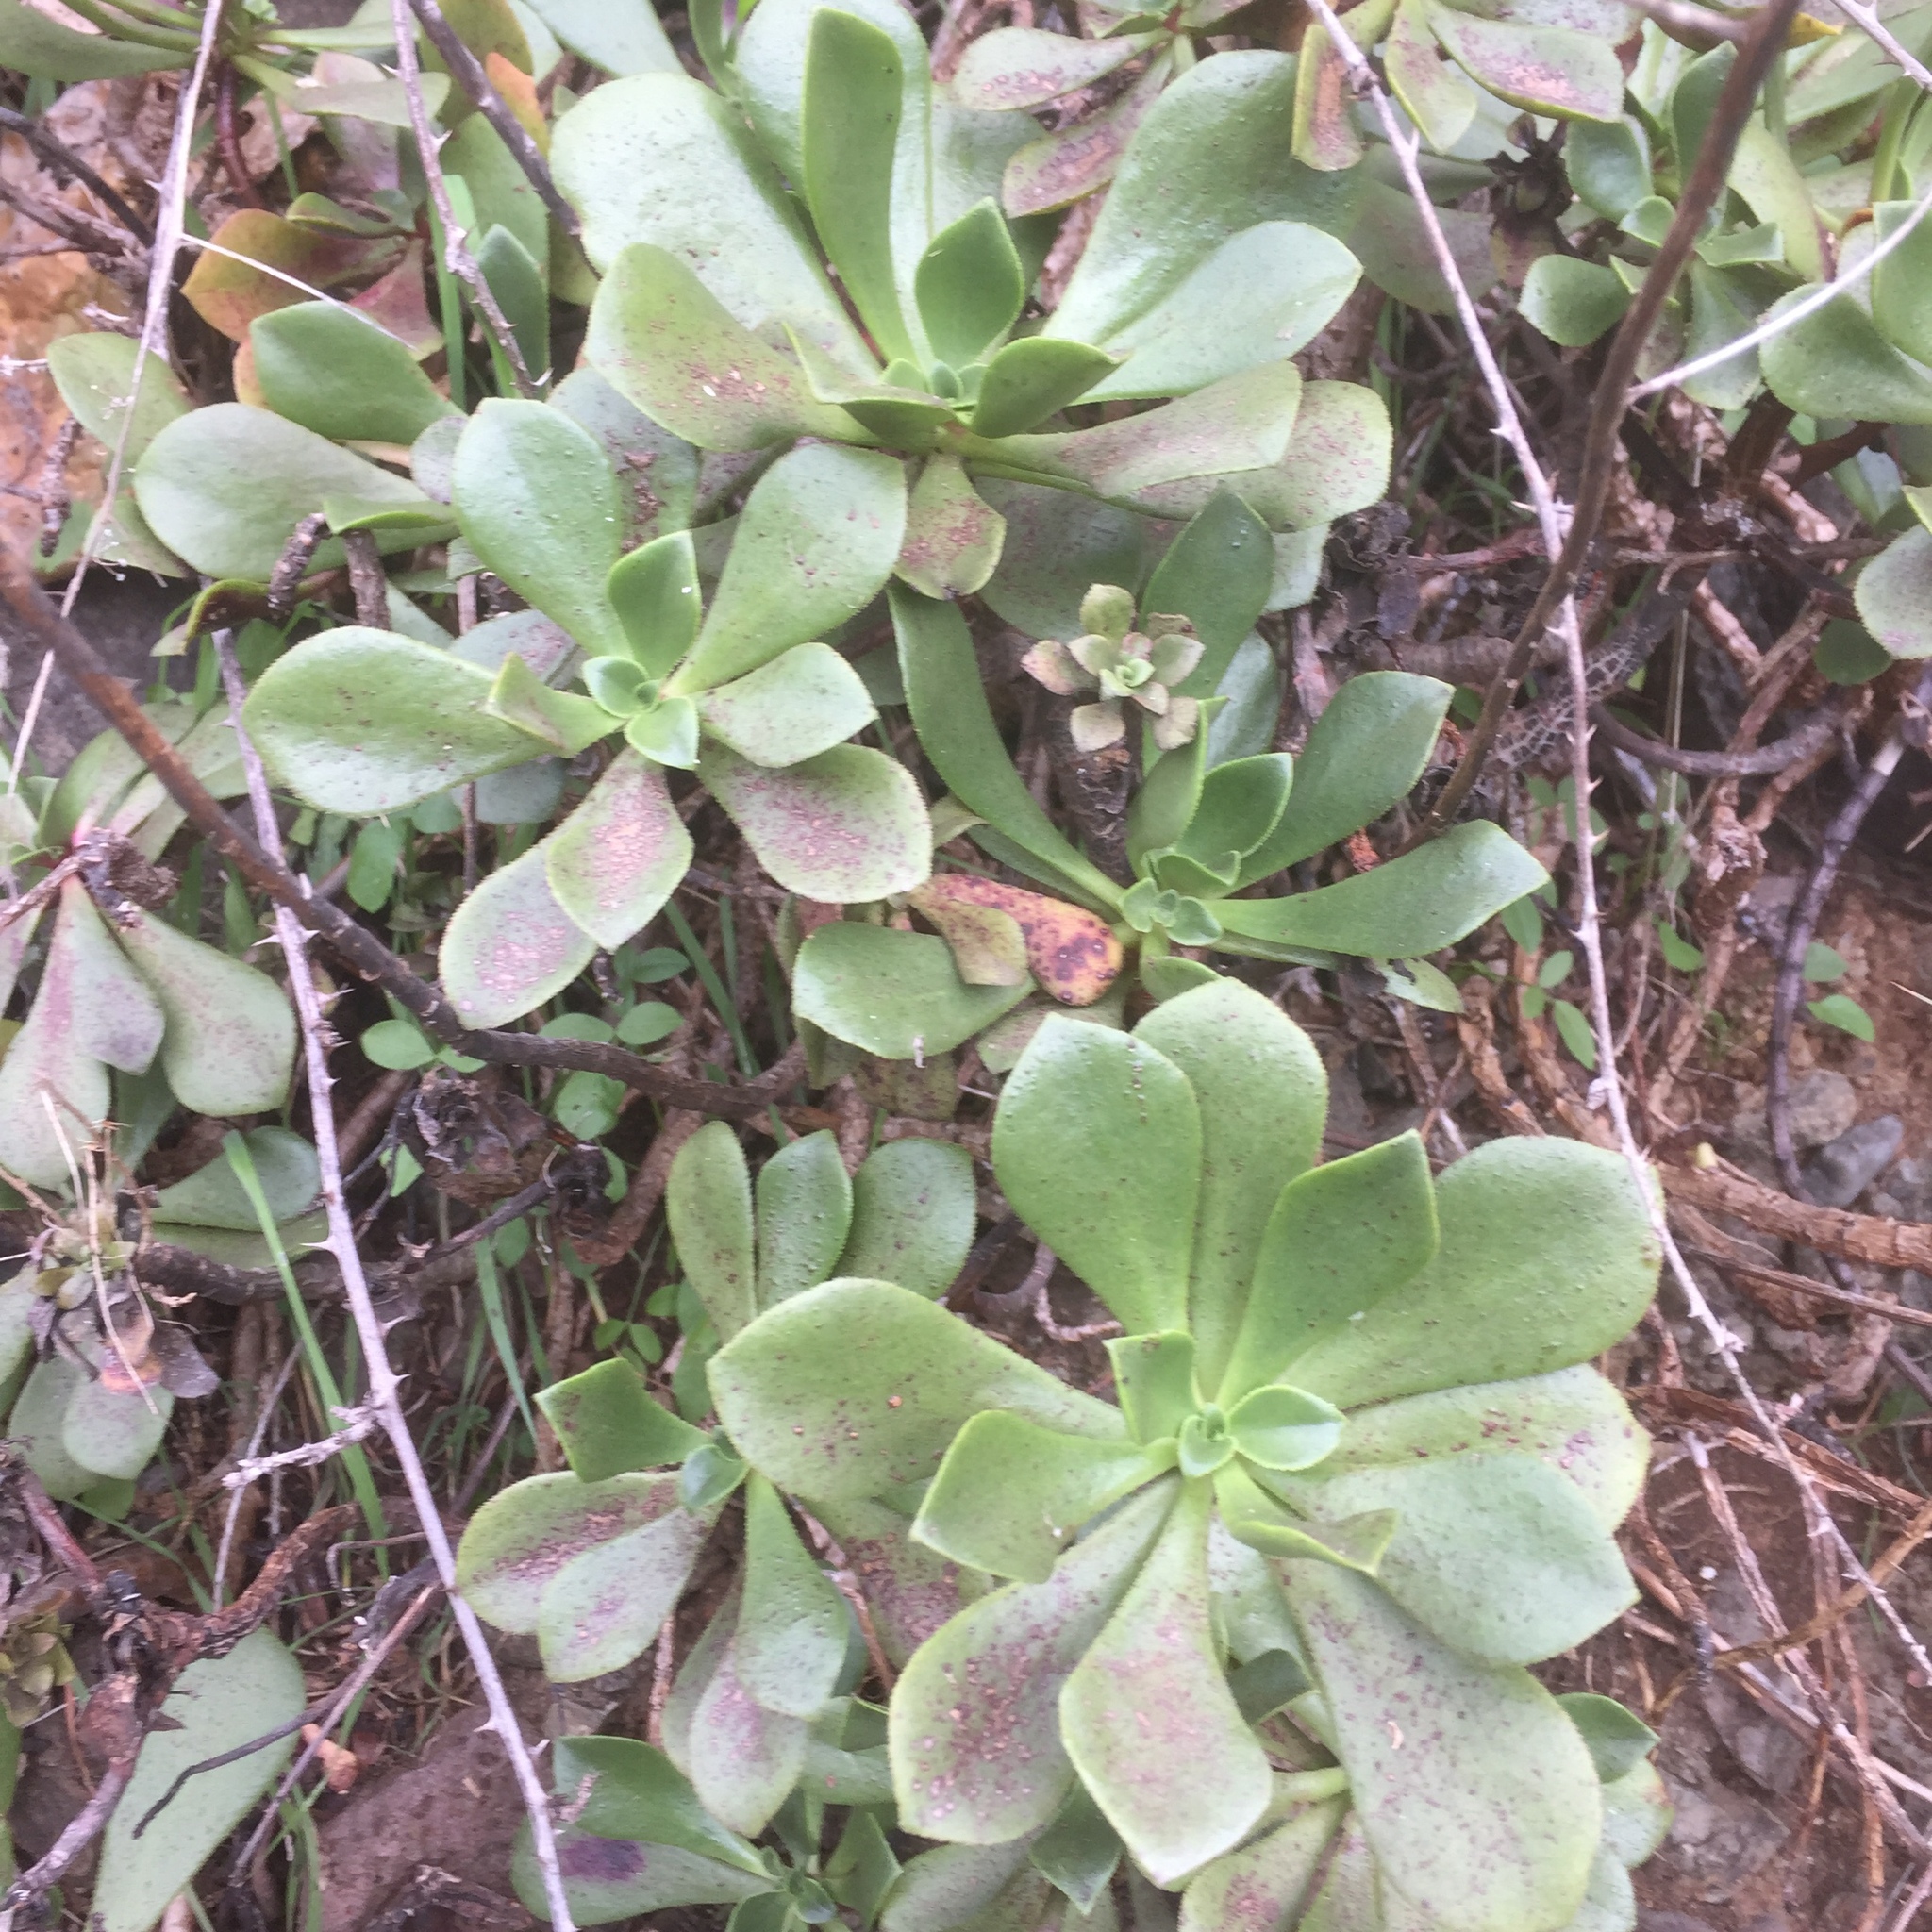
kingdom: Plantae
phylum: Tracheophyta
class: Magnoliopsida
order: Saxifragales
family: Crassulaceae
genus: Aeonium
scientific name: Aeonium glutinosum
